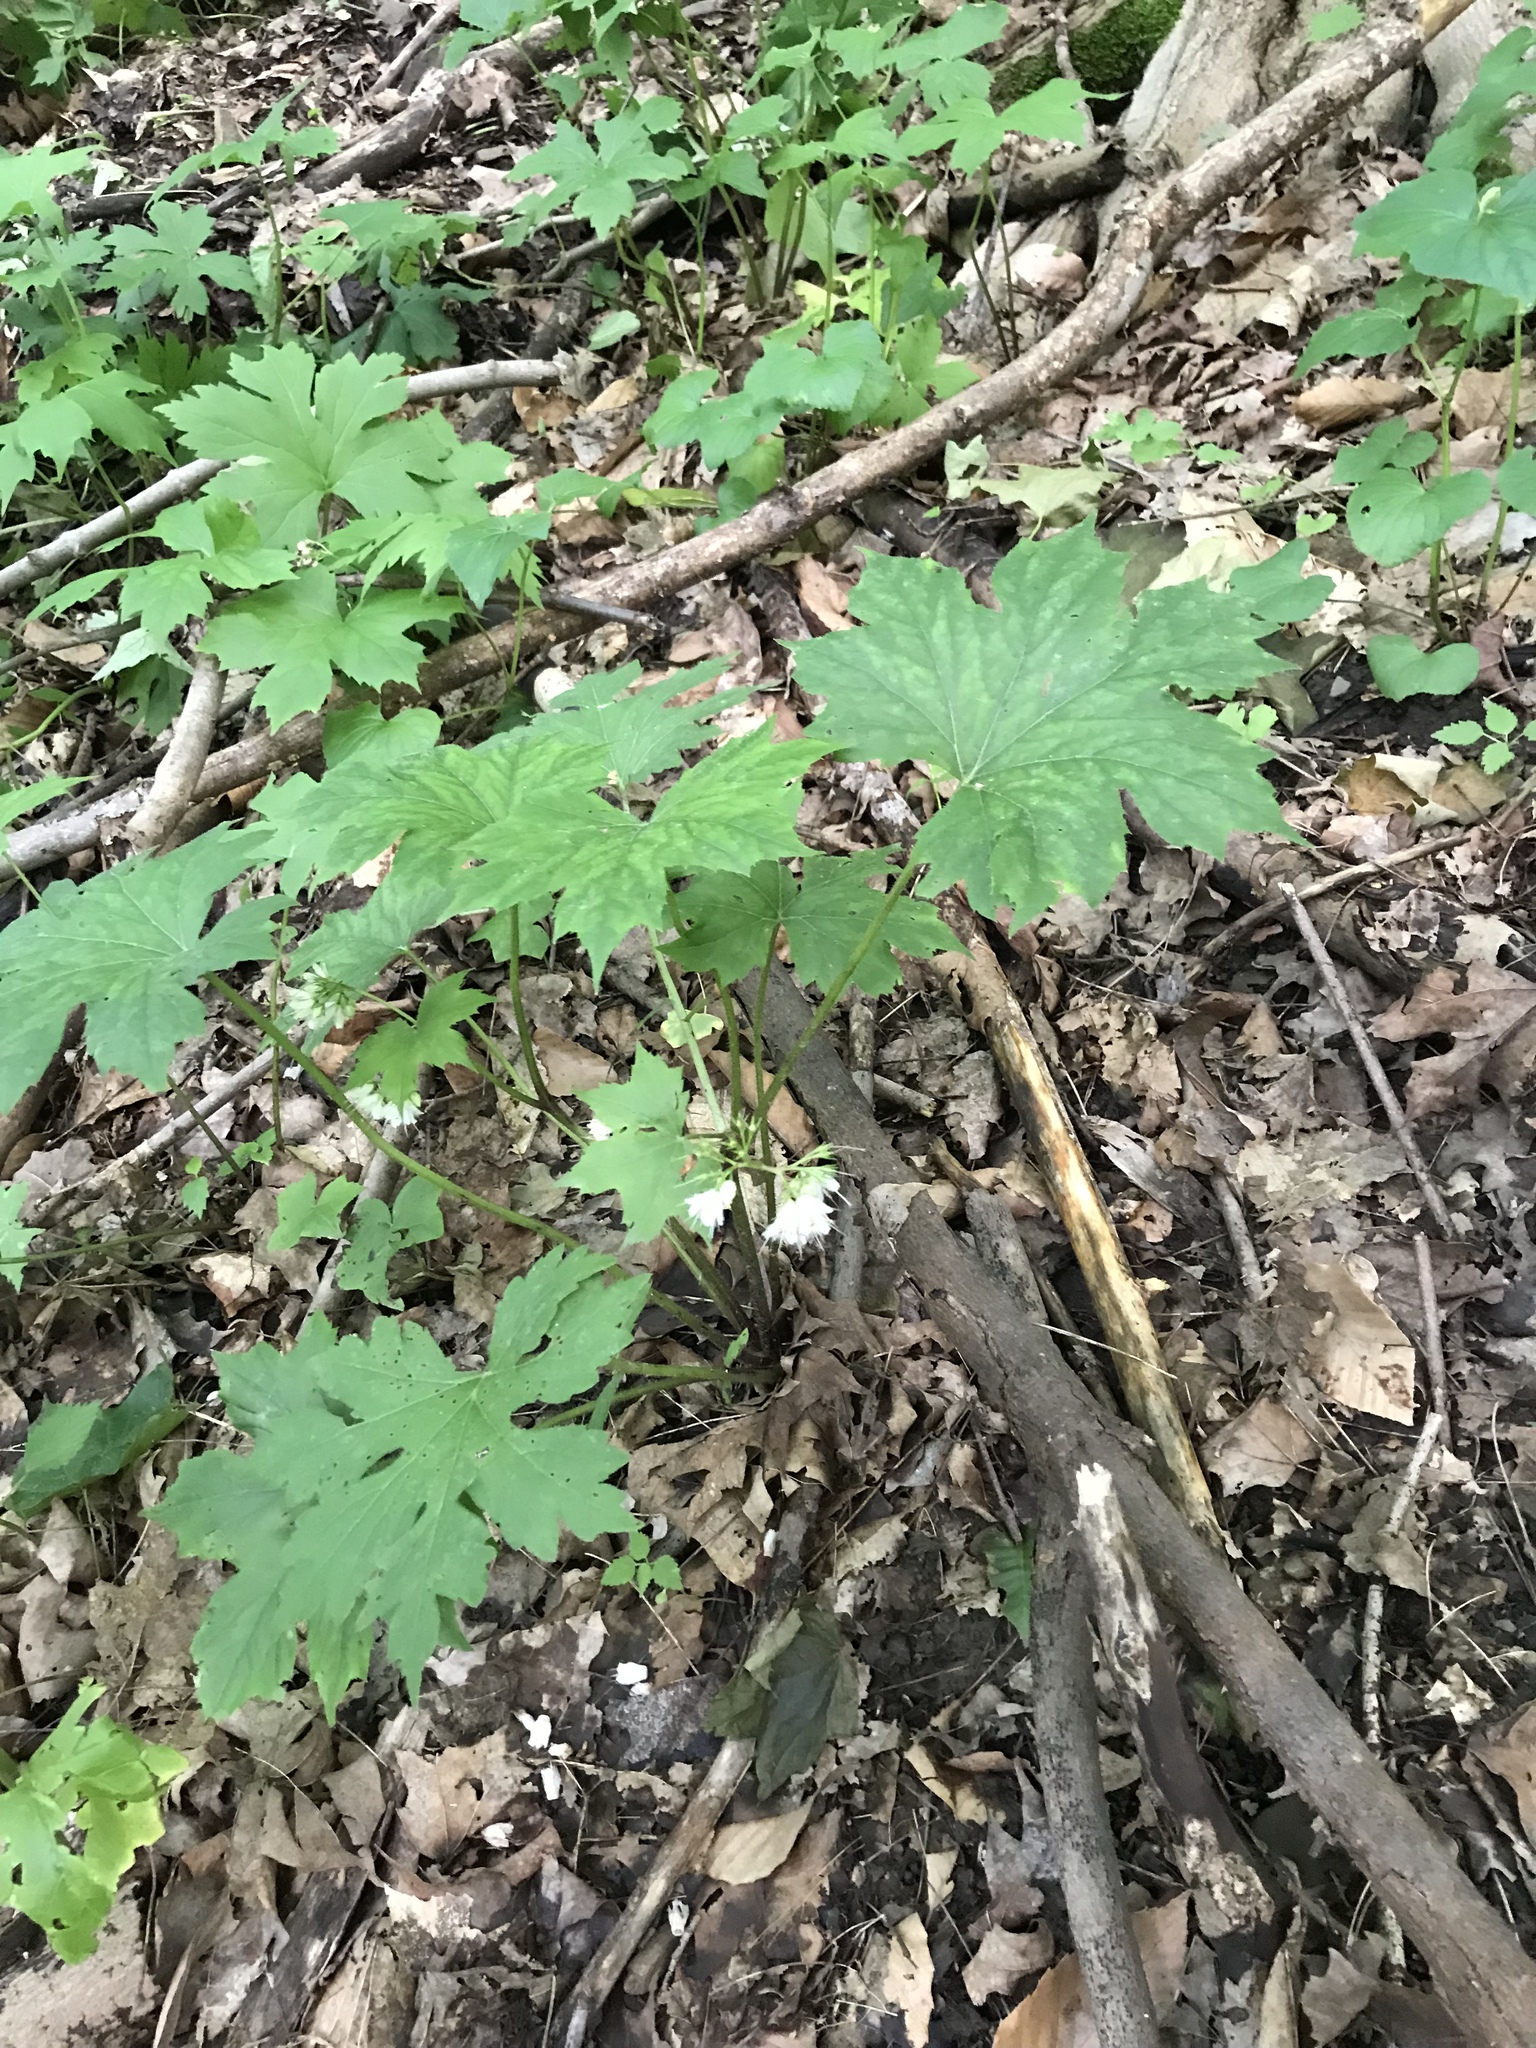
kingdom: Plantae
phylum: Tracheophyta
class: Magnoliopsida
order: Boraginales
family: Hydrophyllaceae
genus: Hydrophyllum
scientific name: Hydrophyllum canadense
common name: Canada waterleaf
